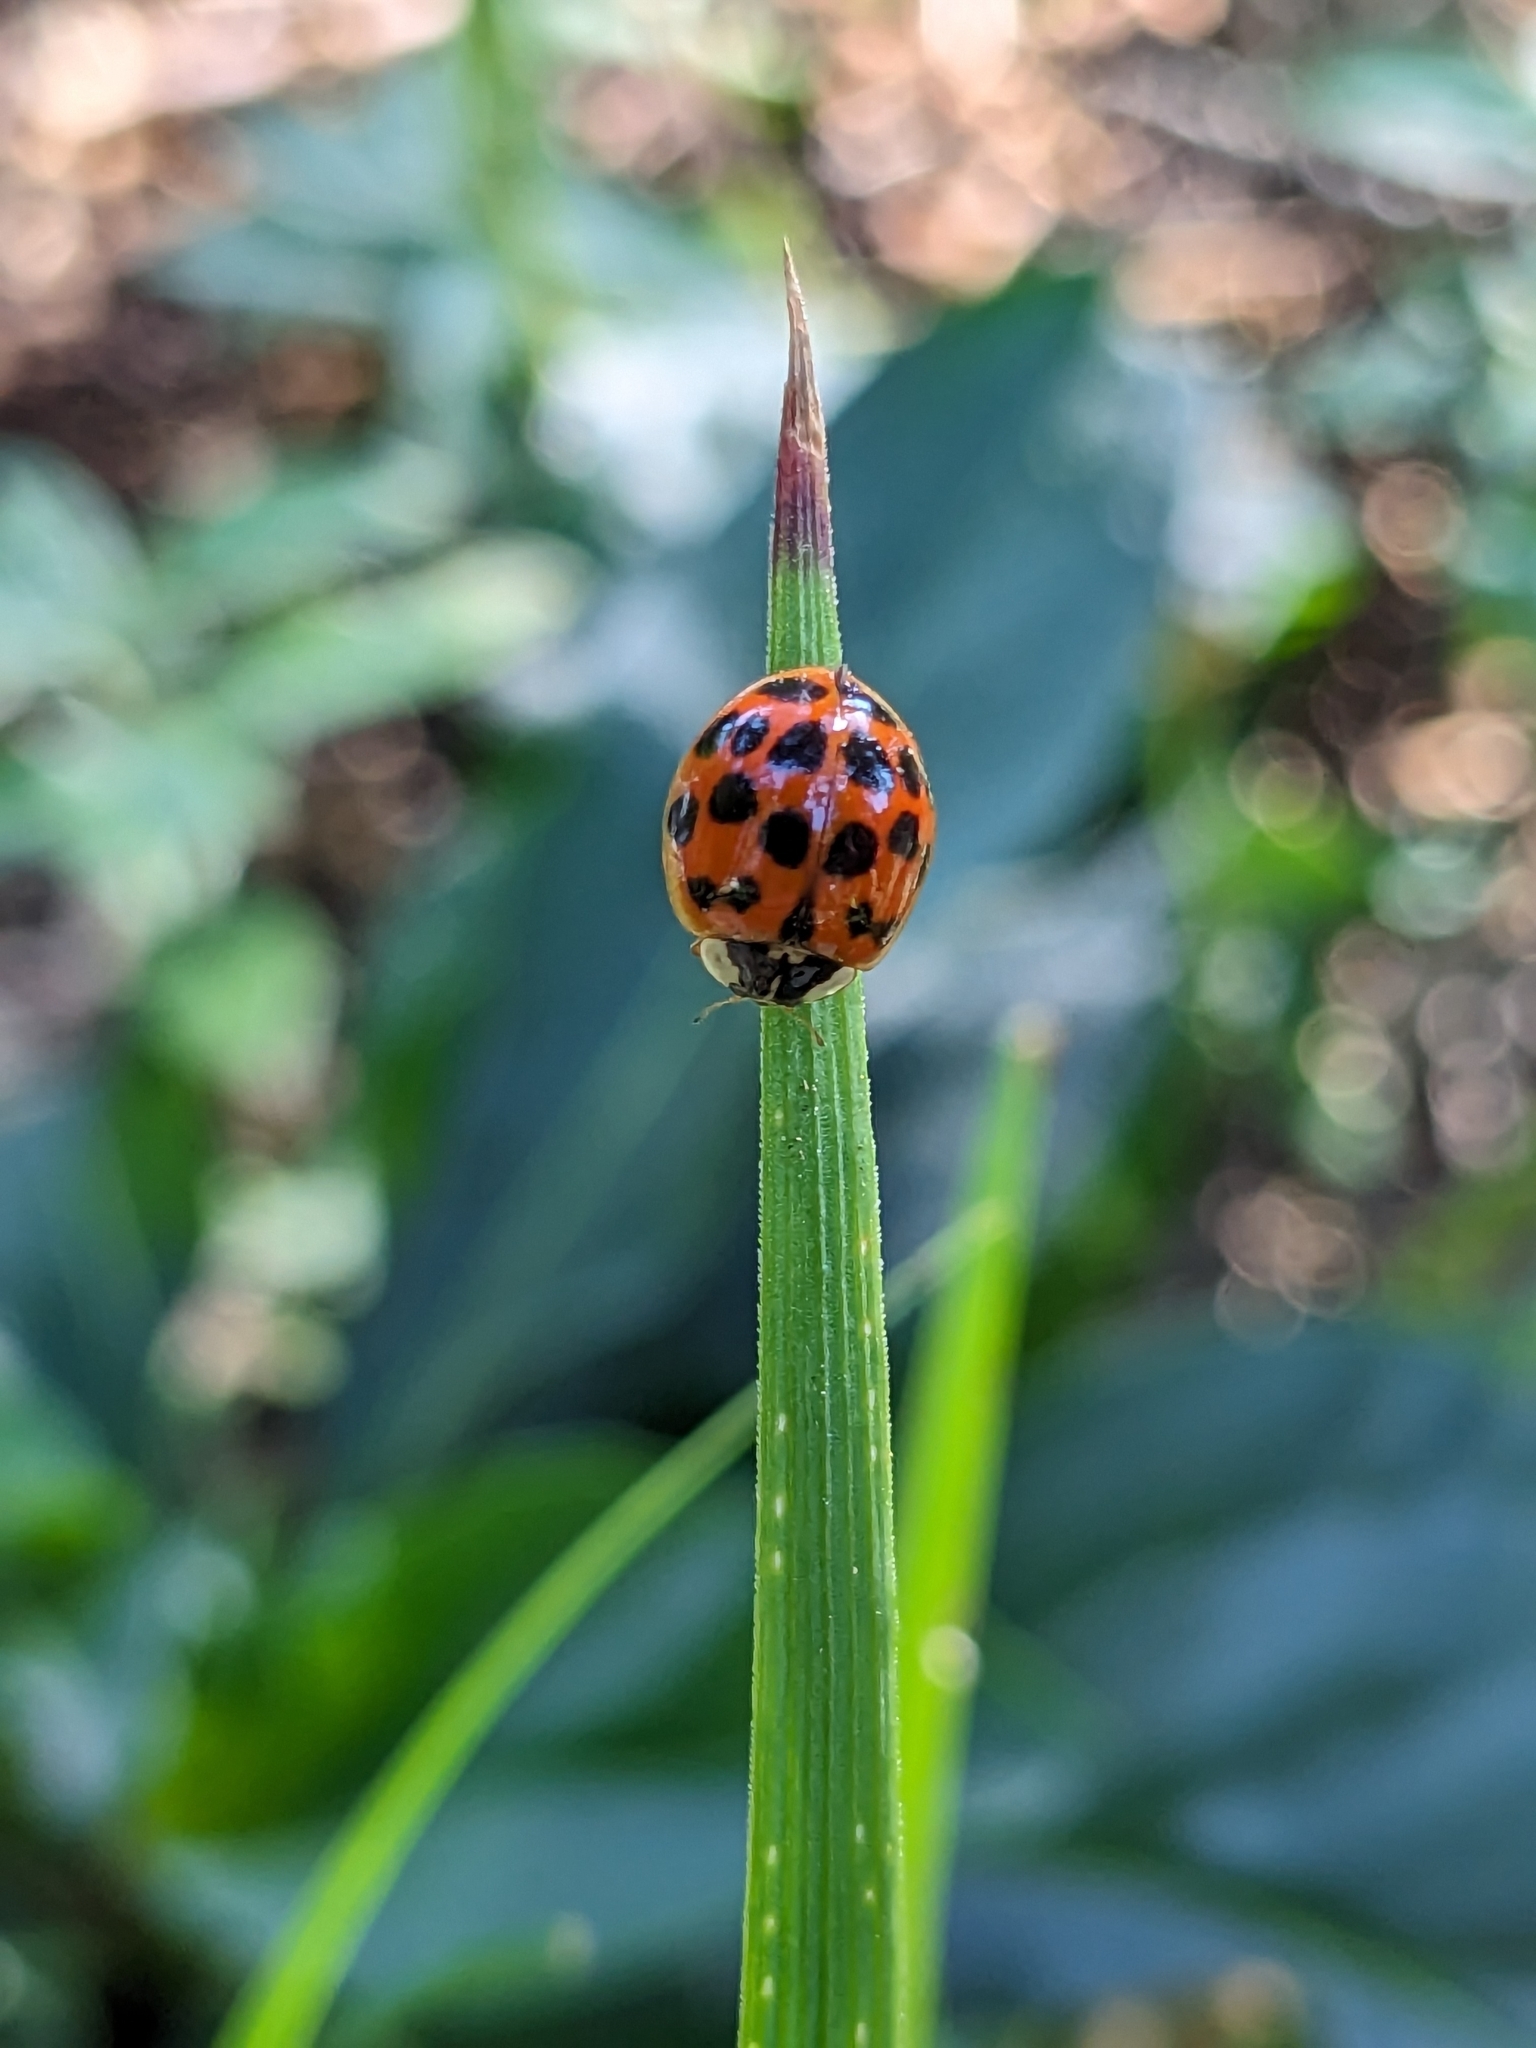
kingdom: Animalia
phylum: Arthropoda
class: Insecta
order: Coleoptera
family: Coccinellidae
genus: Harmonia
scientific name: Harmonia axyridis
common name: Harlequin ladybird
